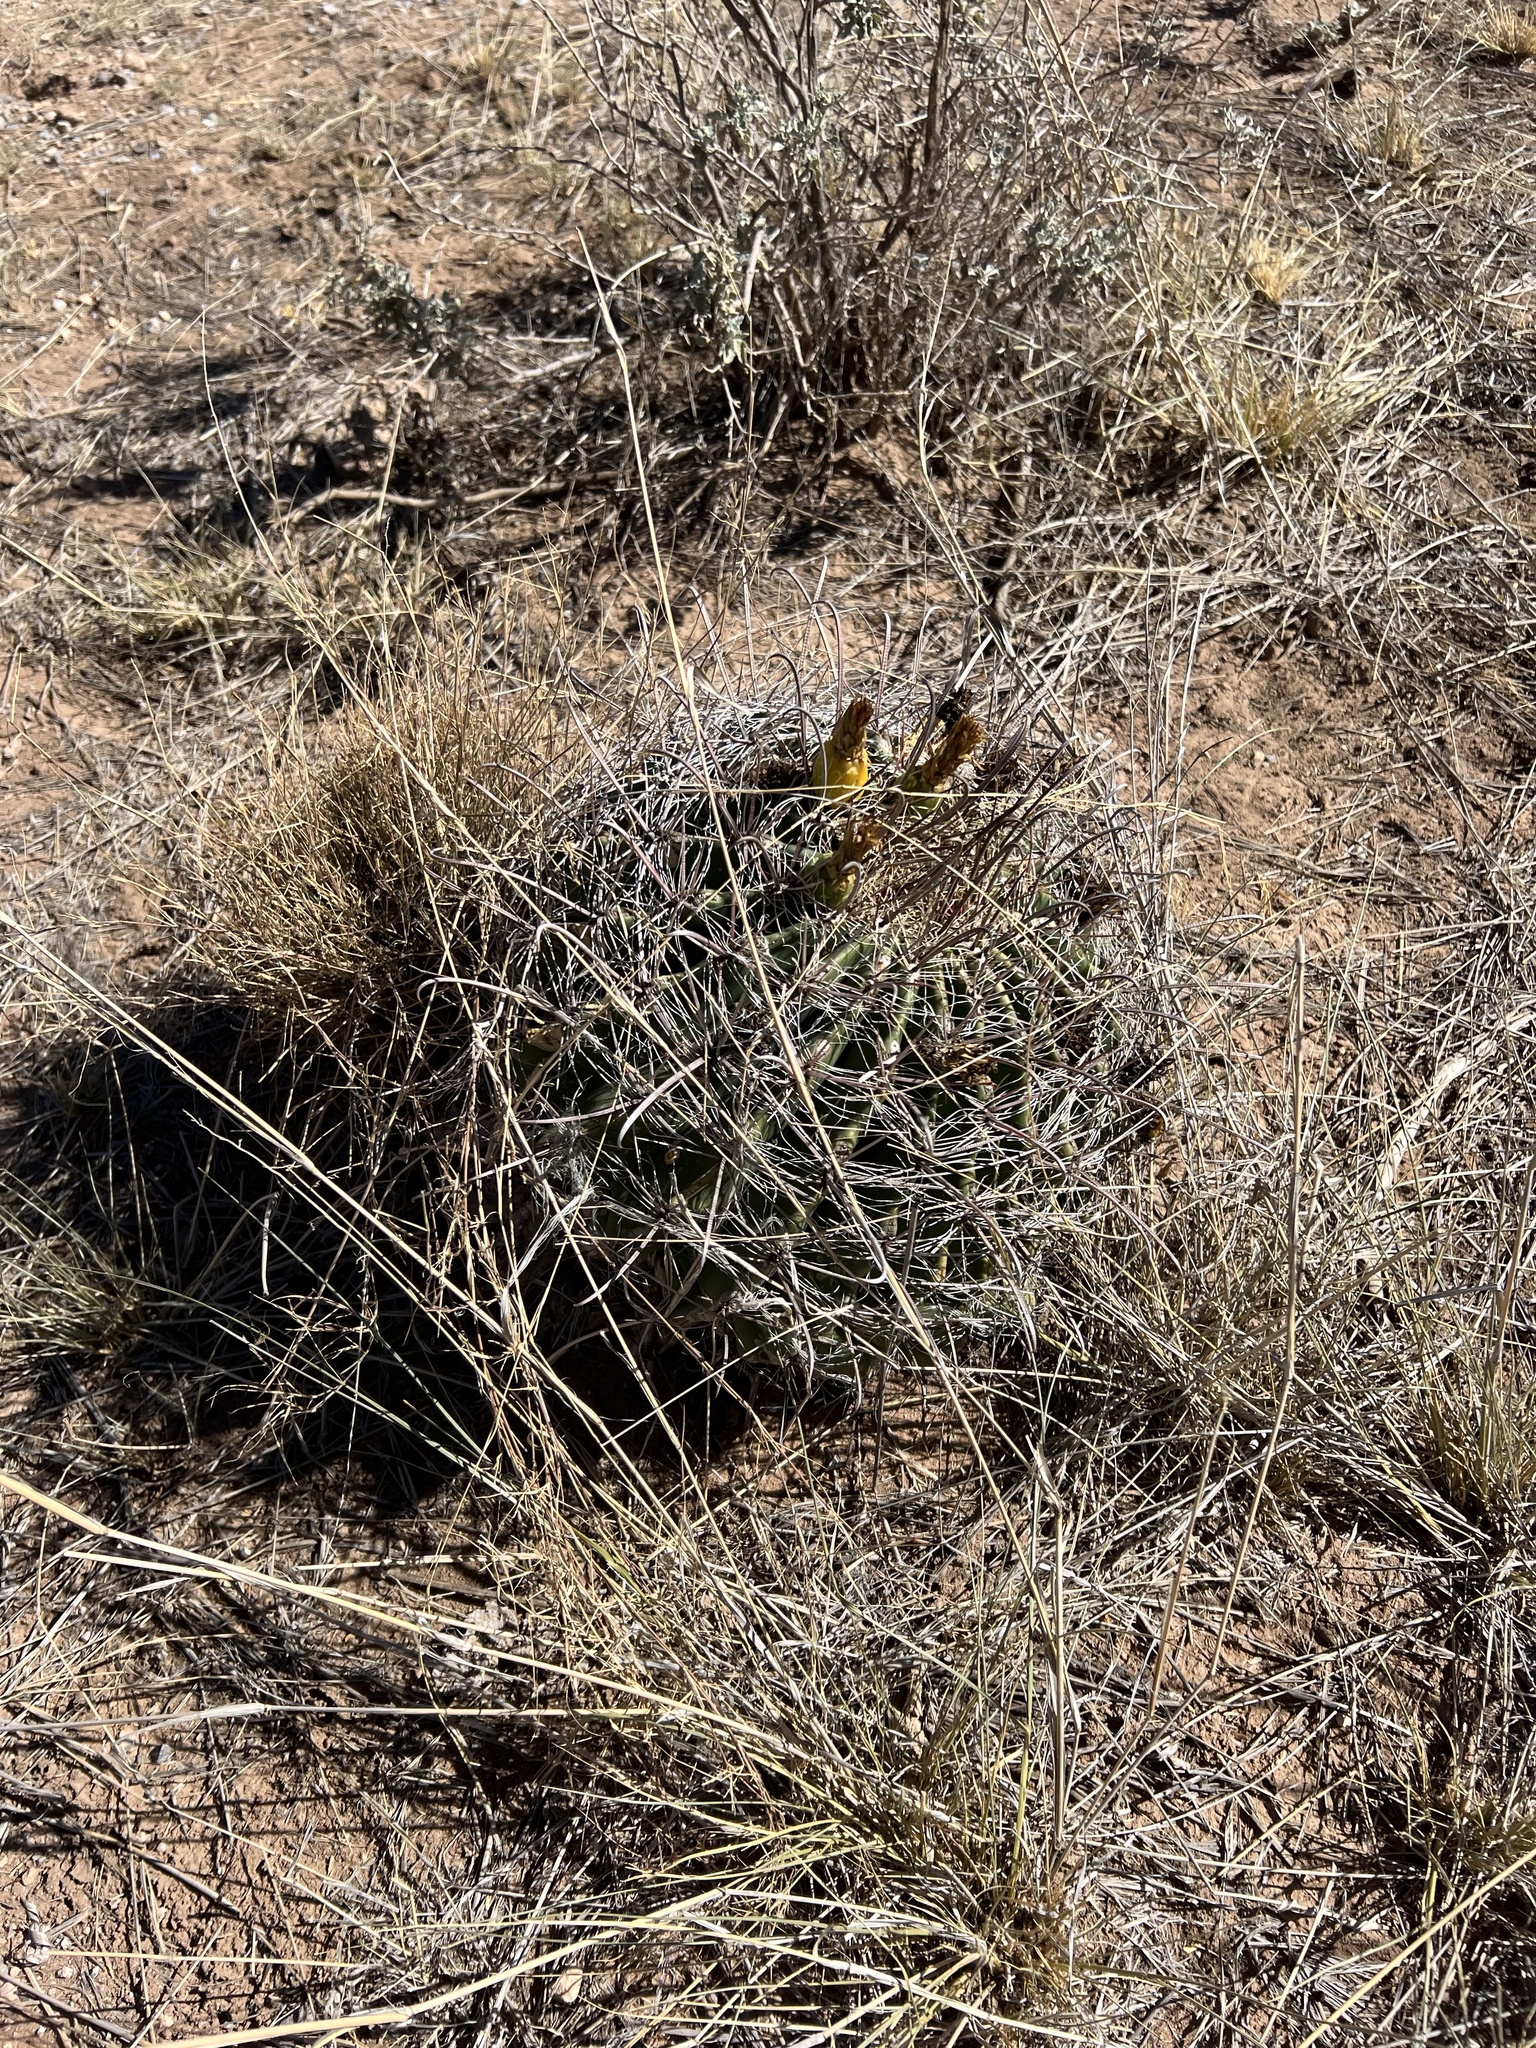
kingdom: Plantae
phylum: Tracheophyta
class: Magnoliopsida
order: Caryophyllales
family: Cactaceae
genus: Ferocactus
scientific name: Ferocactus wislizeni
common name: Candy barrel cactus
